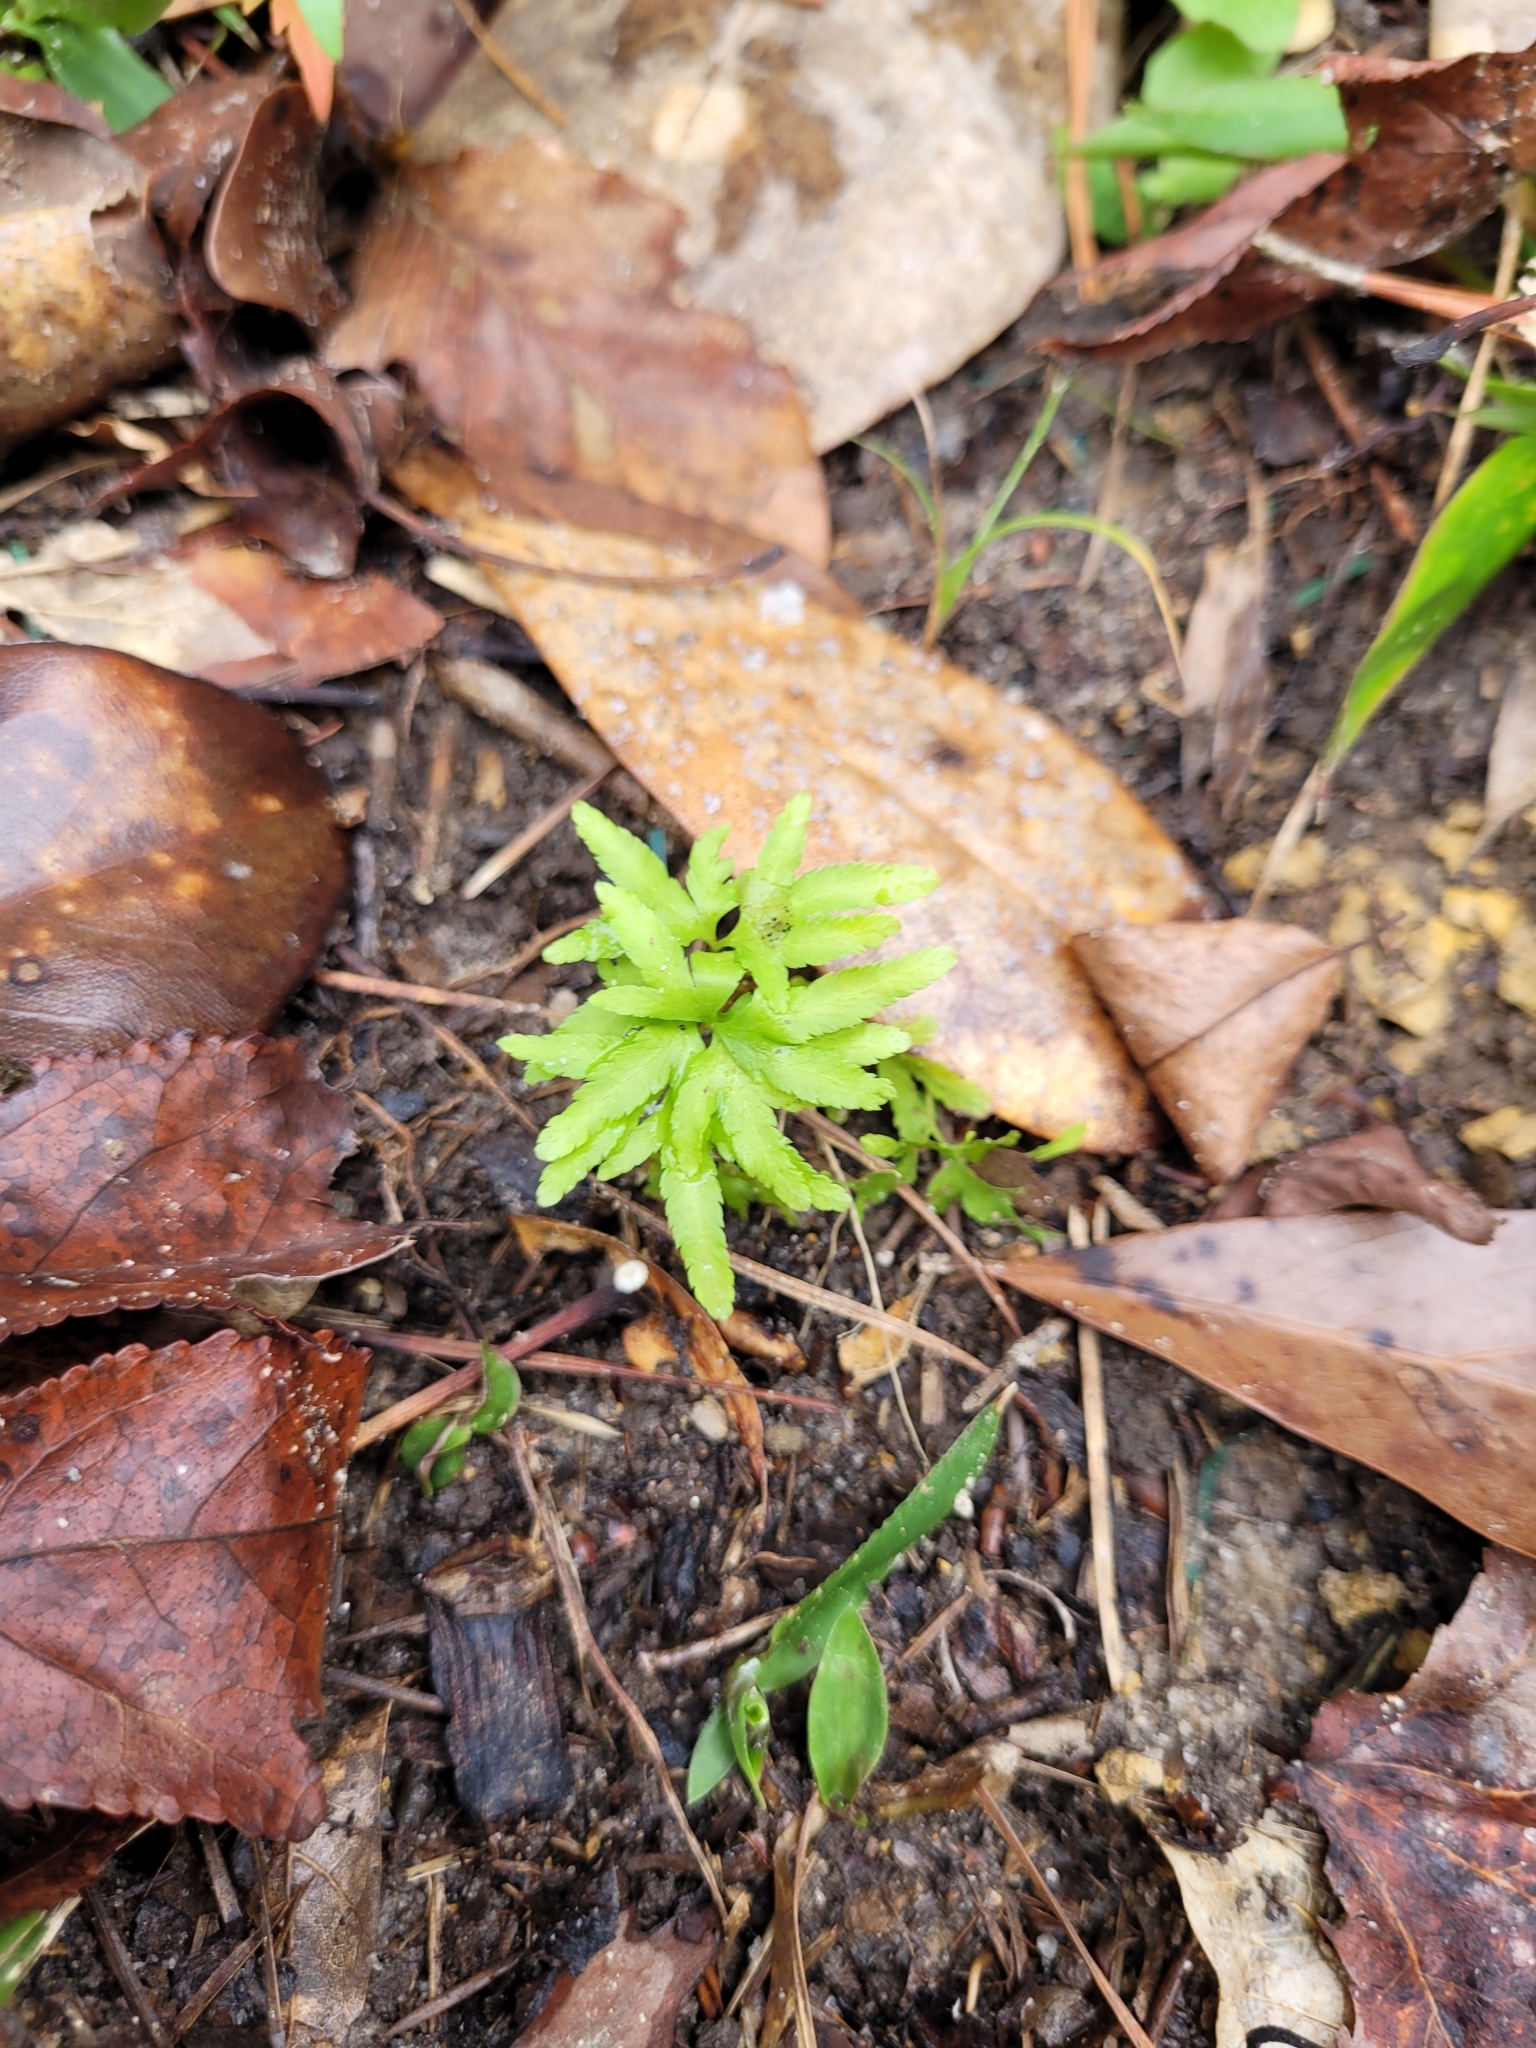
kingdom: Plantae
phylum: Tracheophyta
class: Polypodiopsida
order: Schizaeales
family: Lygodiaceae
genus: Lygodium
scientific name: Lygodium japonicum
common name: Japanese climbing fern
